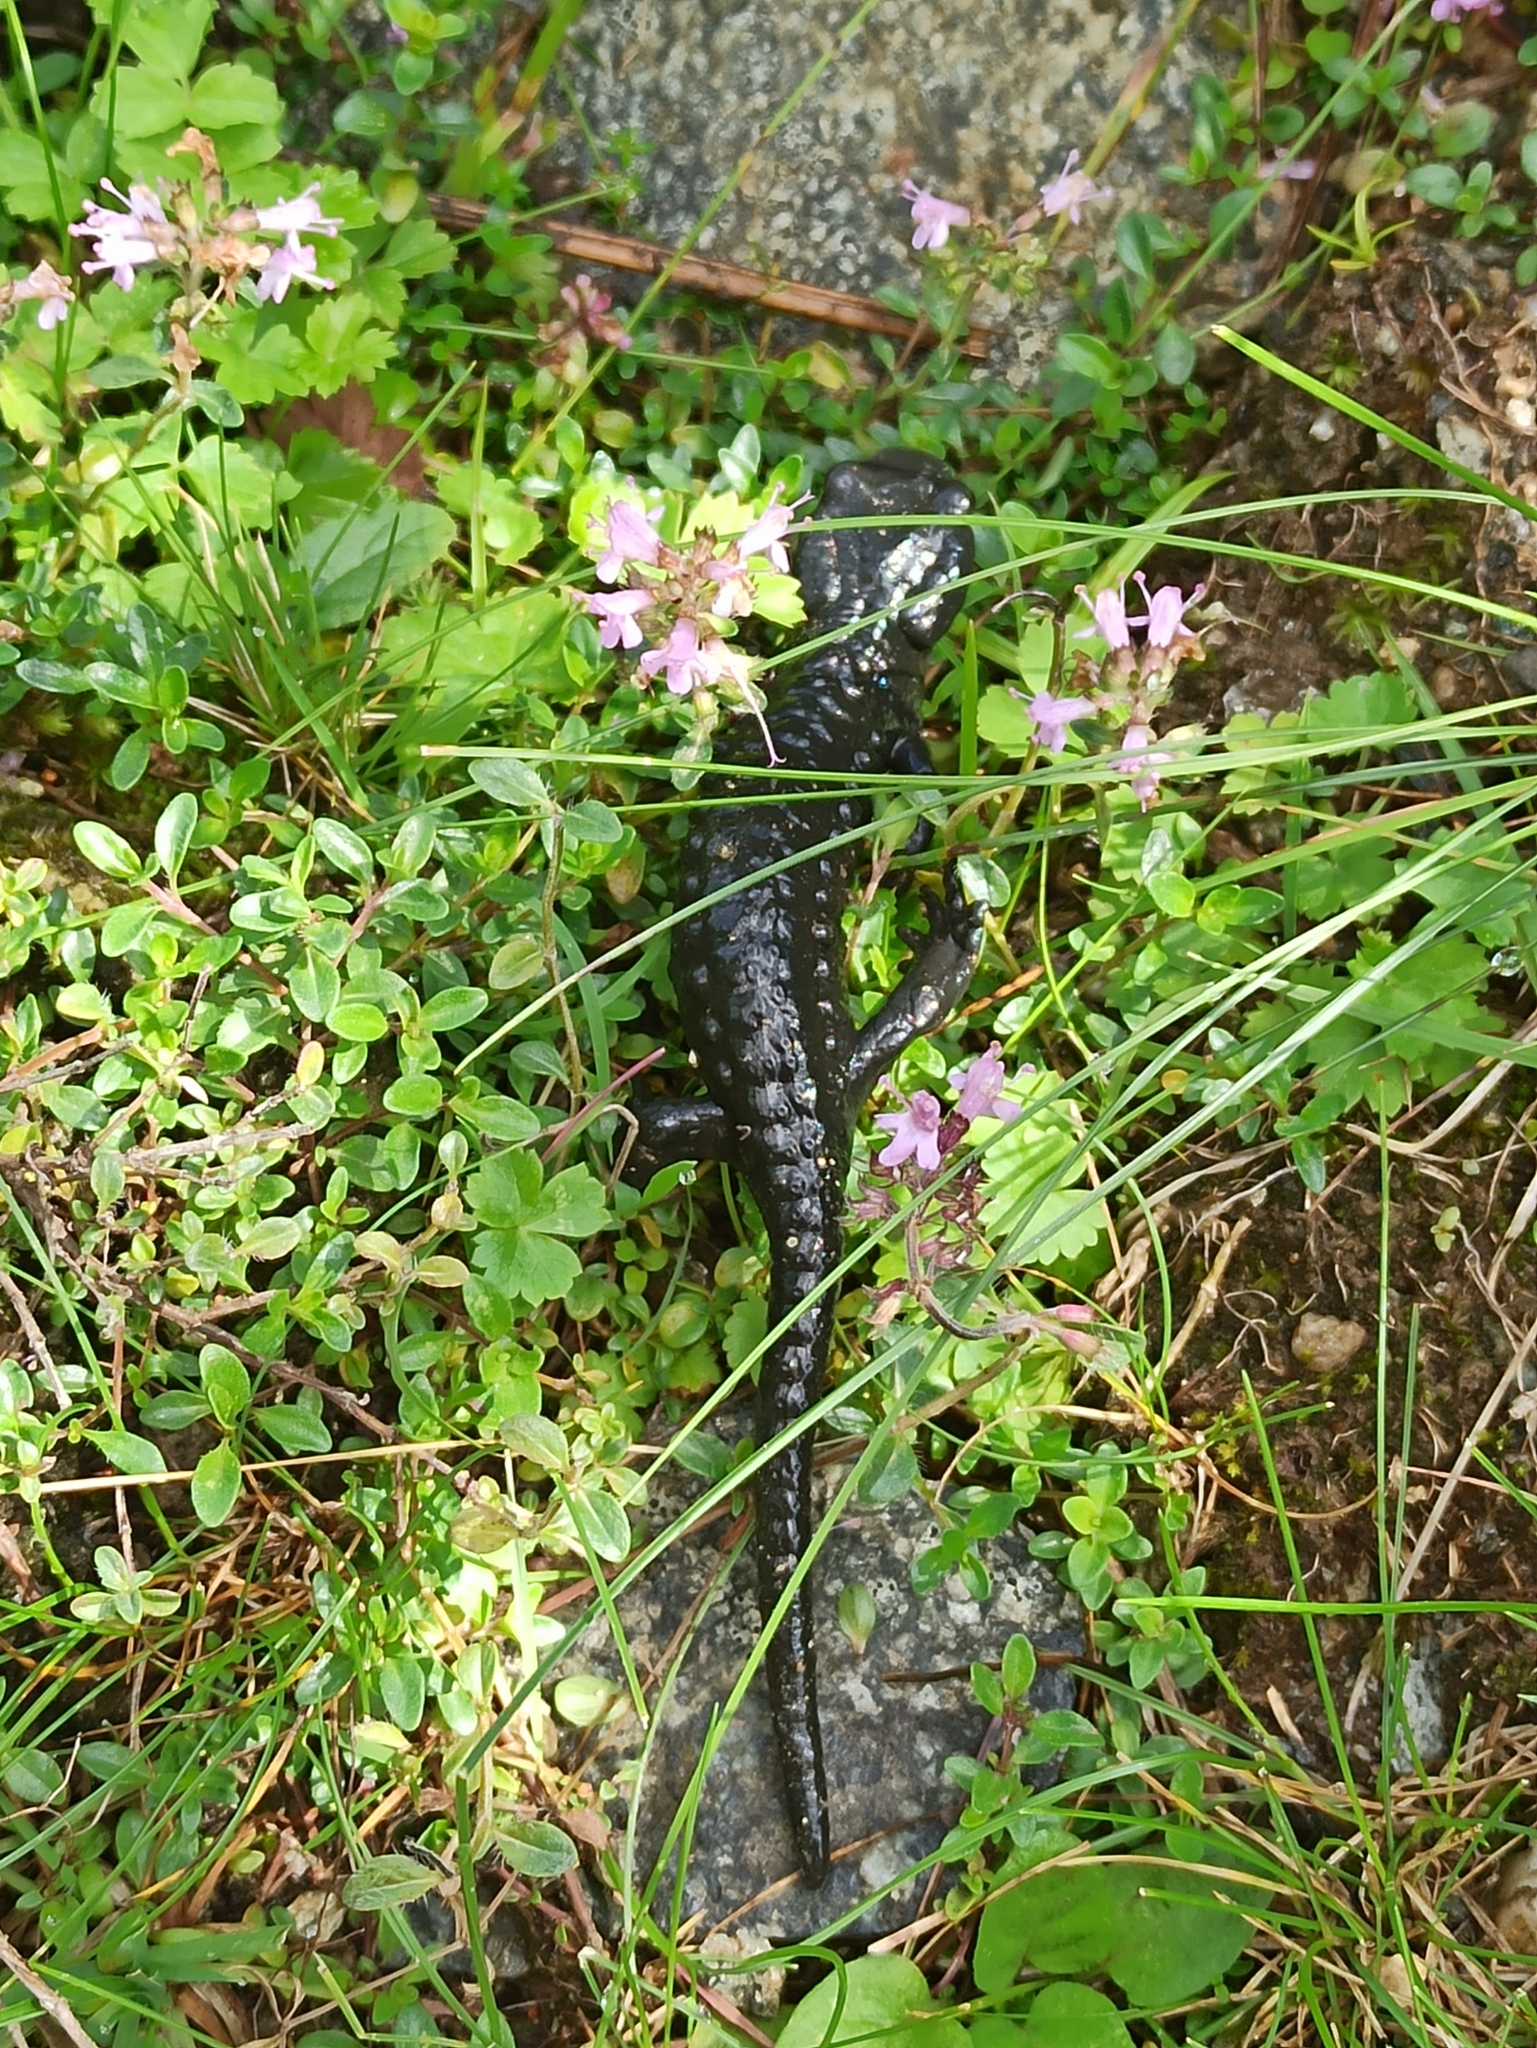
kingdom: Animalia
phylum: Chordata
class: Amphibia
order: Caudata
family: Salamandridae
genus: Salamandra
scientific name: Salamandra atra
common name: Alpine salamander
